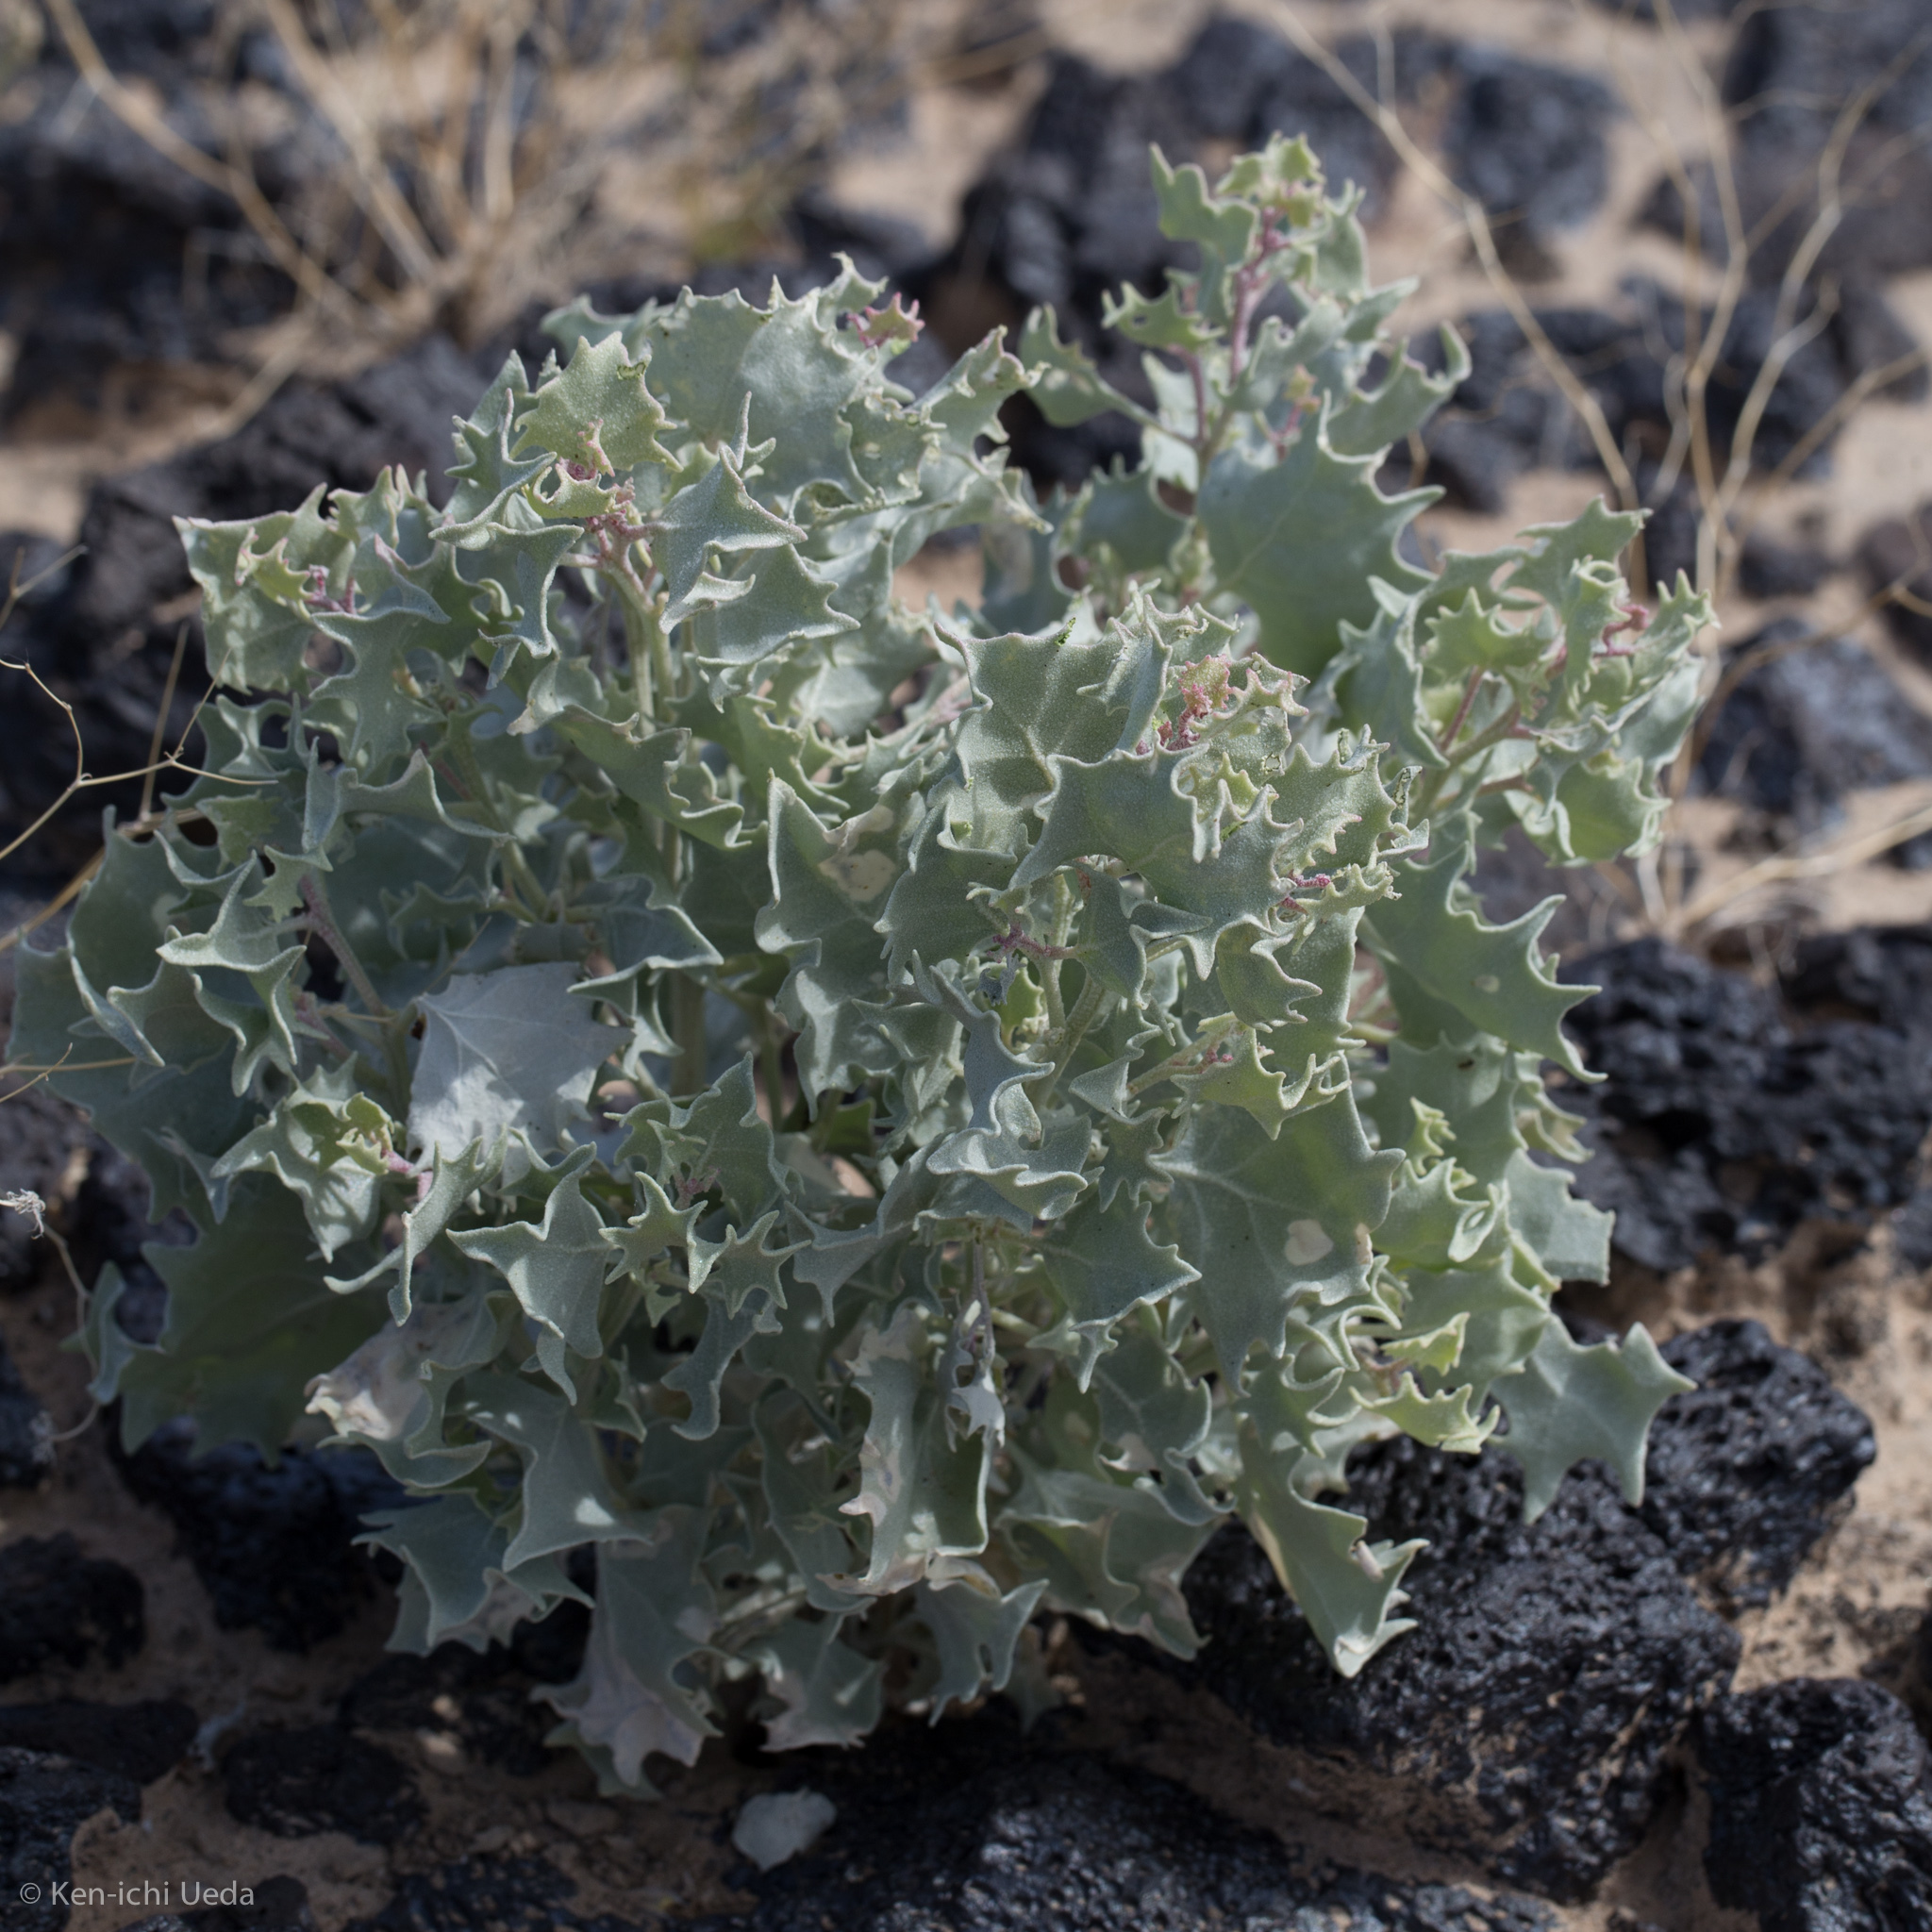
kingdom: Plantae
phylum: Tracheophyta
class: Magnoliopsida
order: Caryophyllales
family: Amaranthaceae
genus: Atriplex
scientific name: Atriplex hymenelytra
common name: Desert-holly
